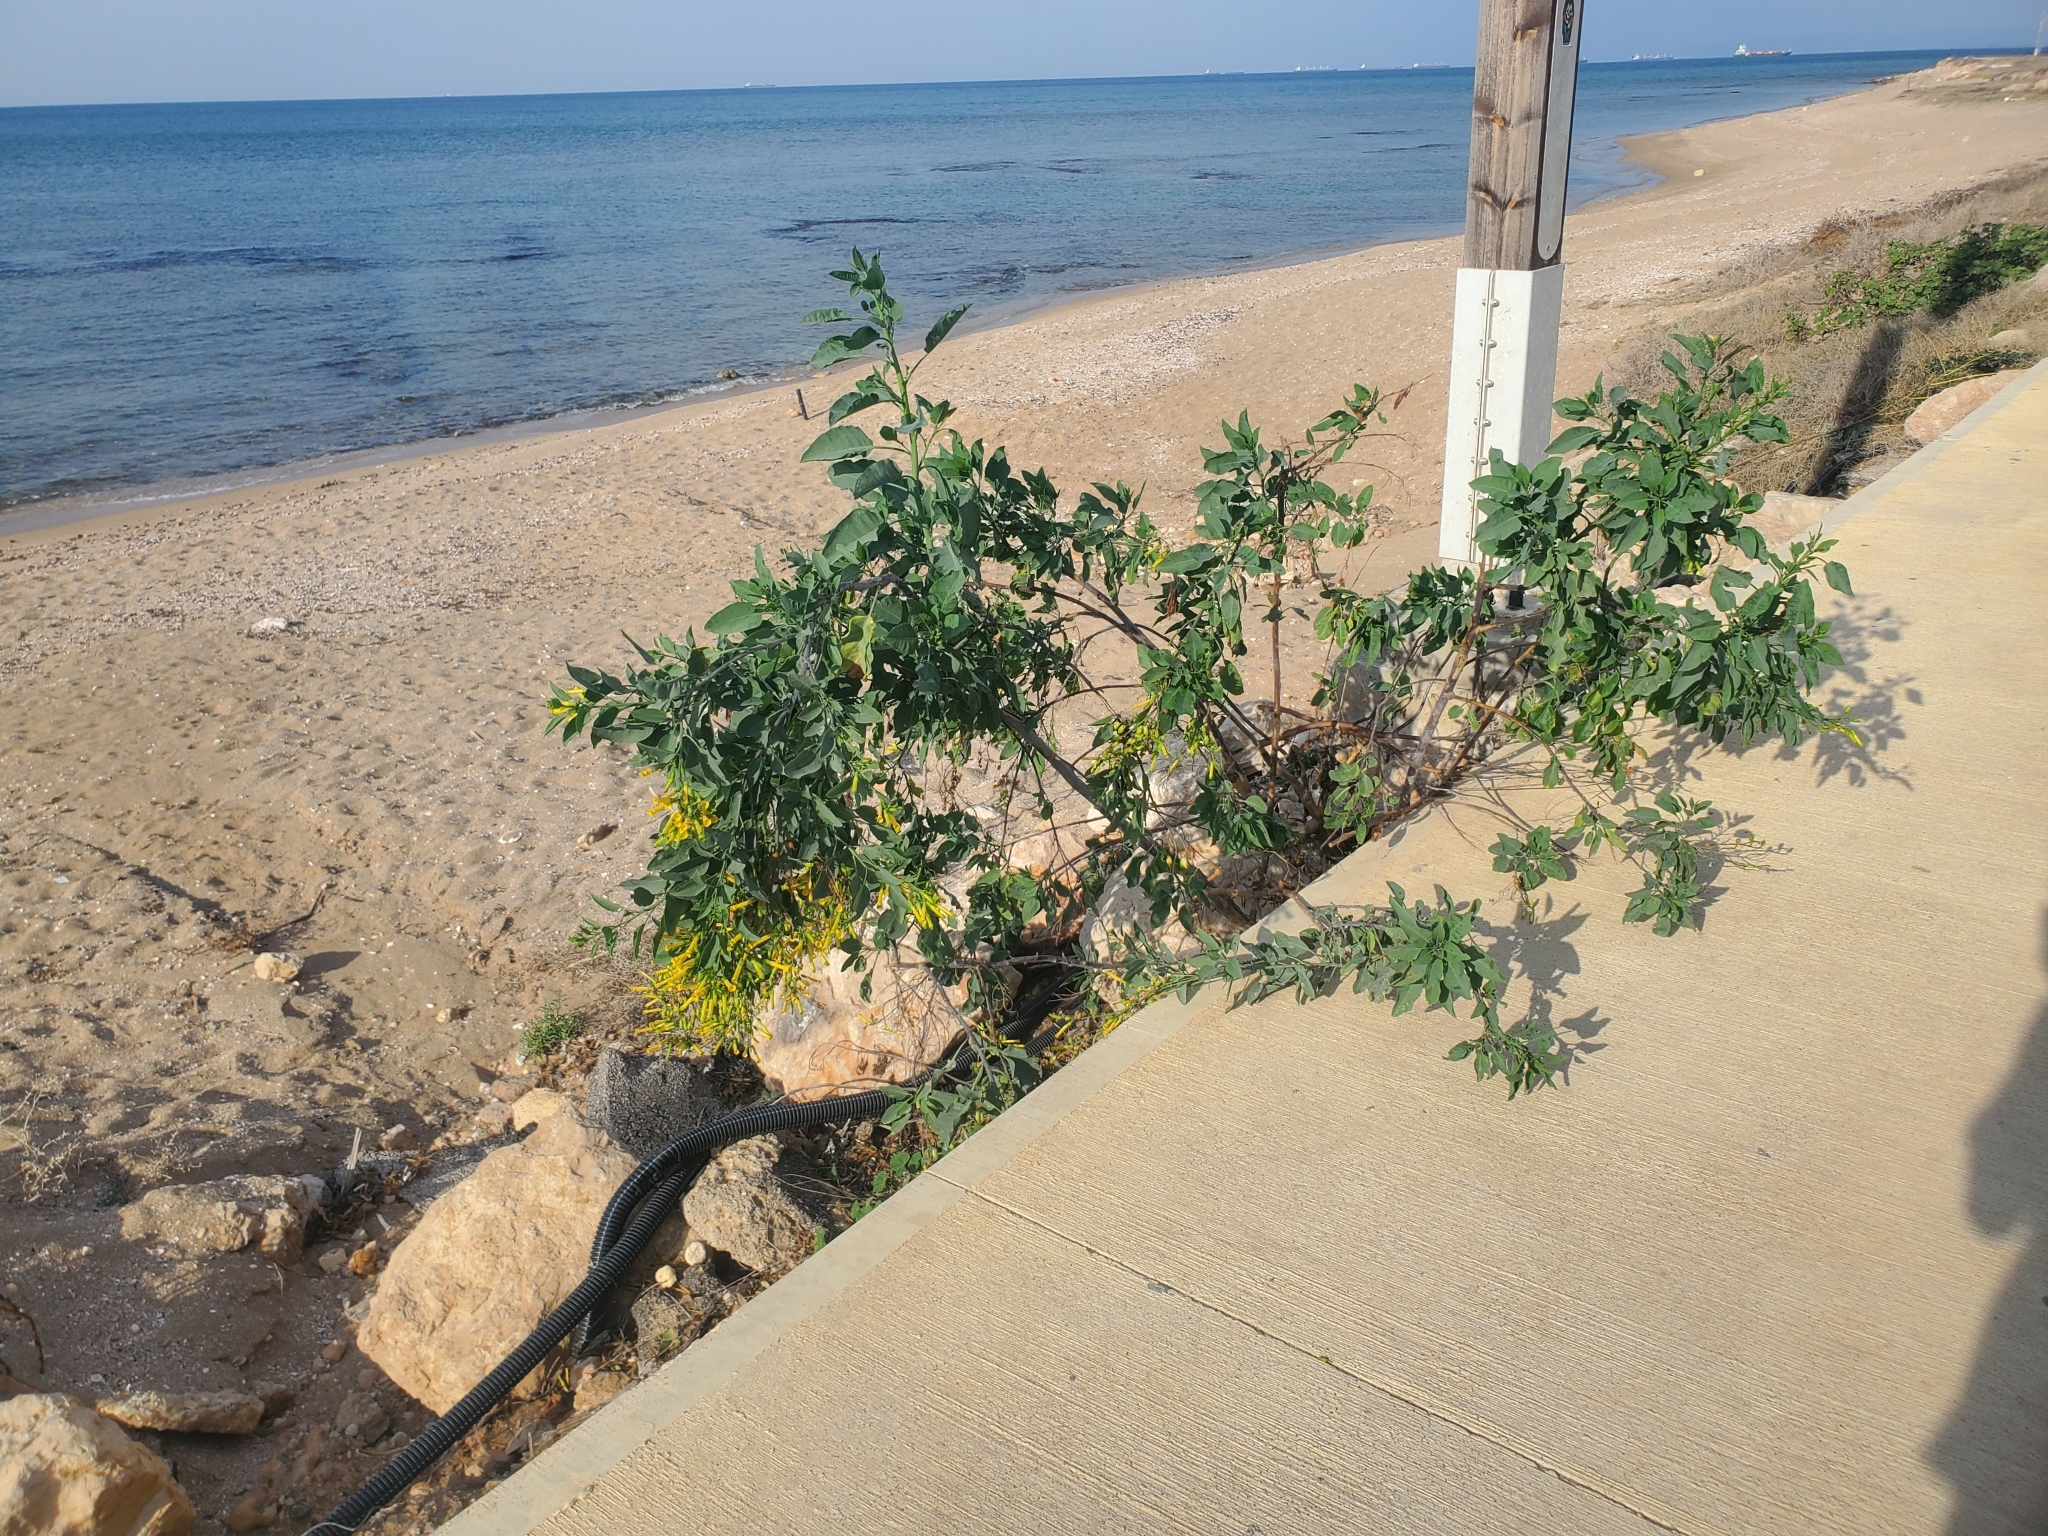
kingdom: Plantae
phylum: Tracheophyta
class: Magnoliopsida
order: Solanales
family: Solanaceae
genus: Nicotiana
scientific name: Nicotiana glauca
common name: Tree tobacco
